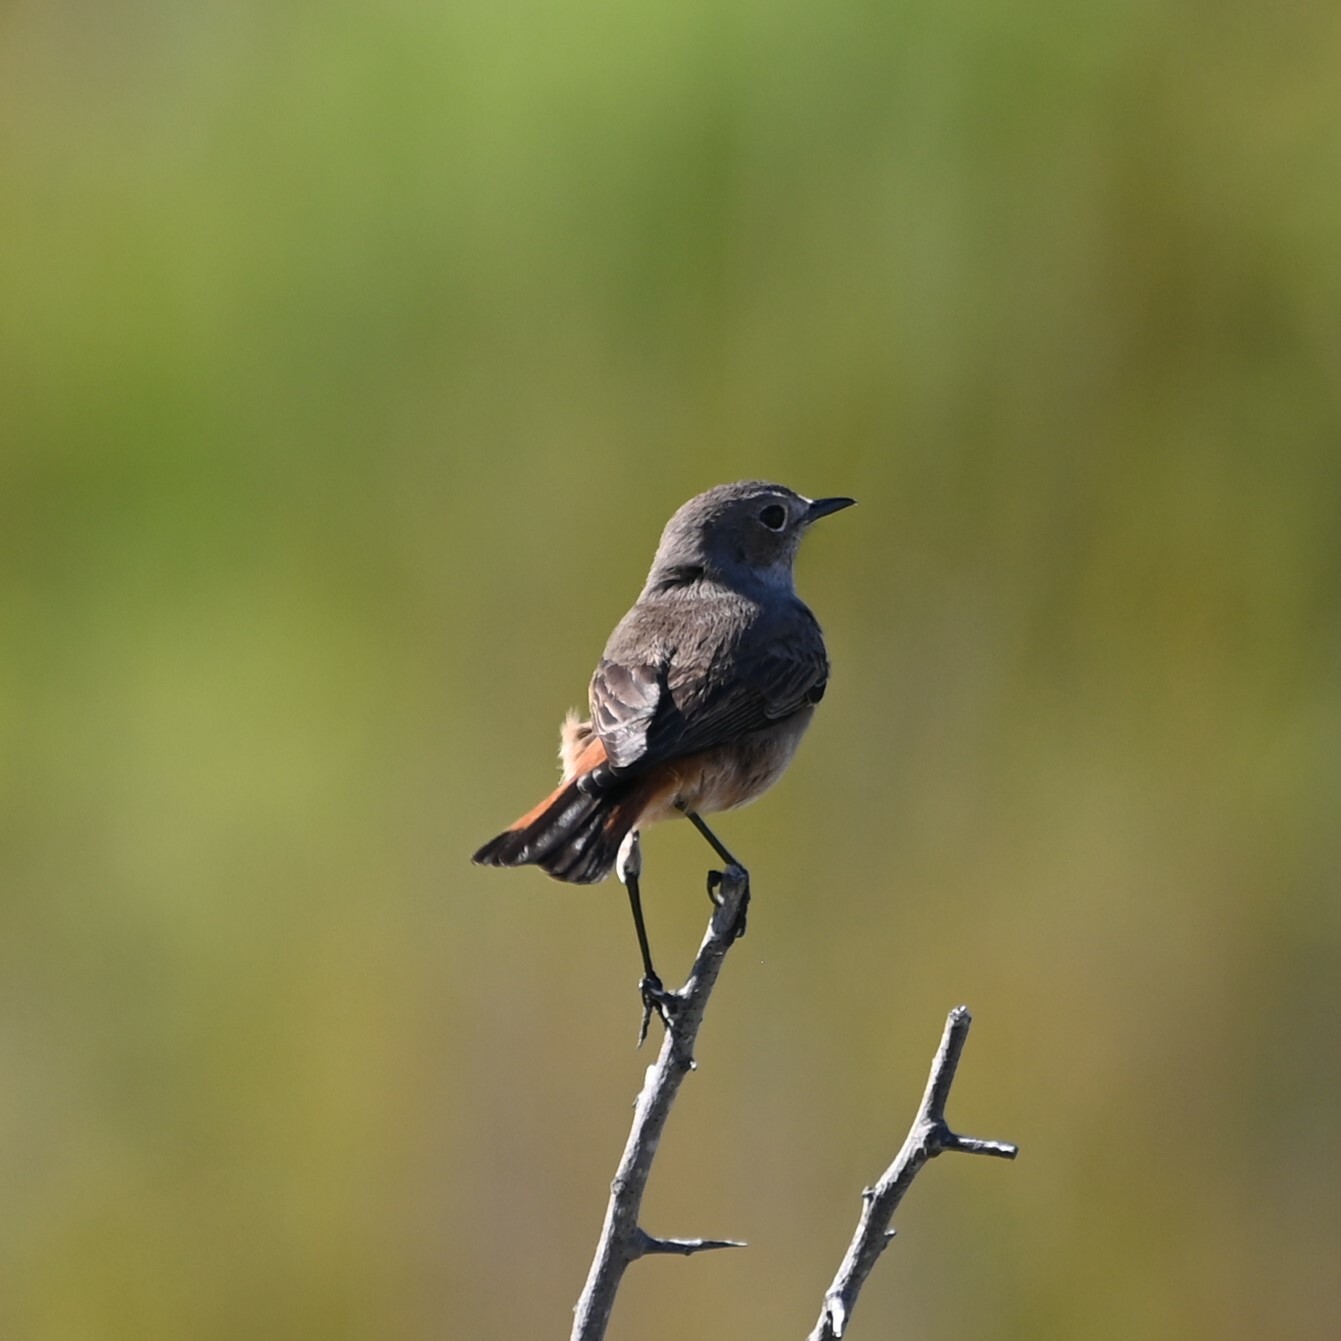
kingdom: Animalia
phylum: Chordata
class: Aves
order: Passeriformes
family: Muscicapidae
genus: Oenanthe
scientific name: Oenanthe familiaris
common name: Familiar chat
